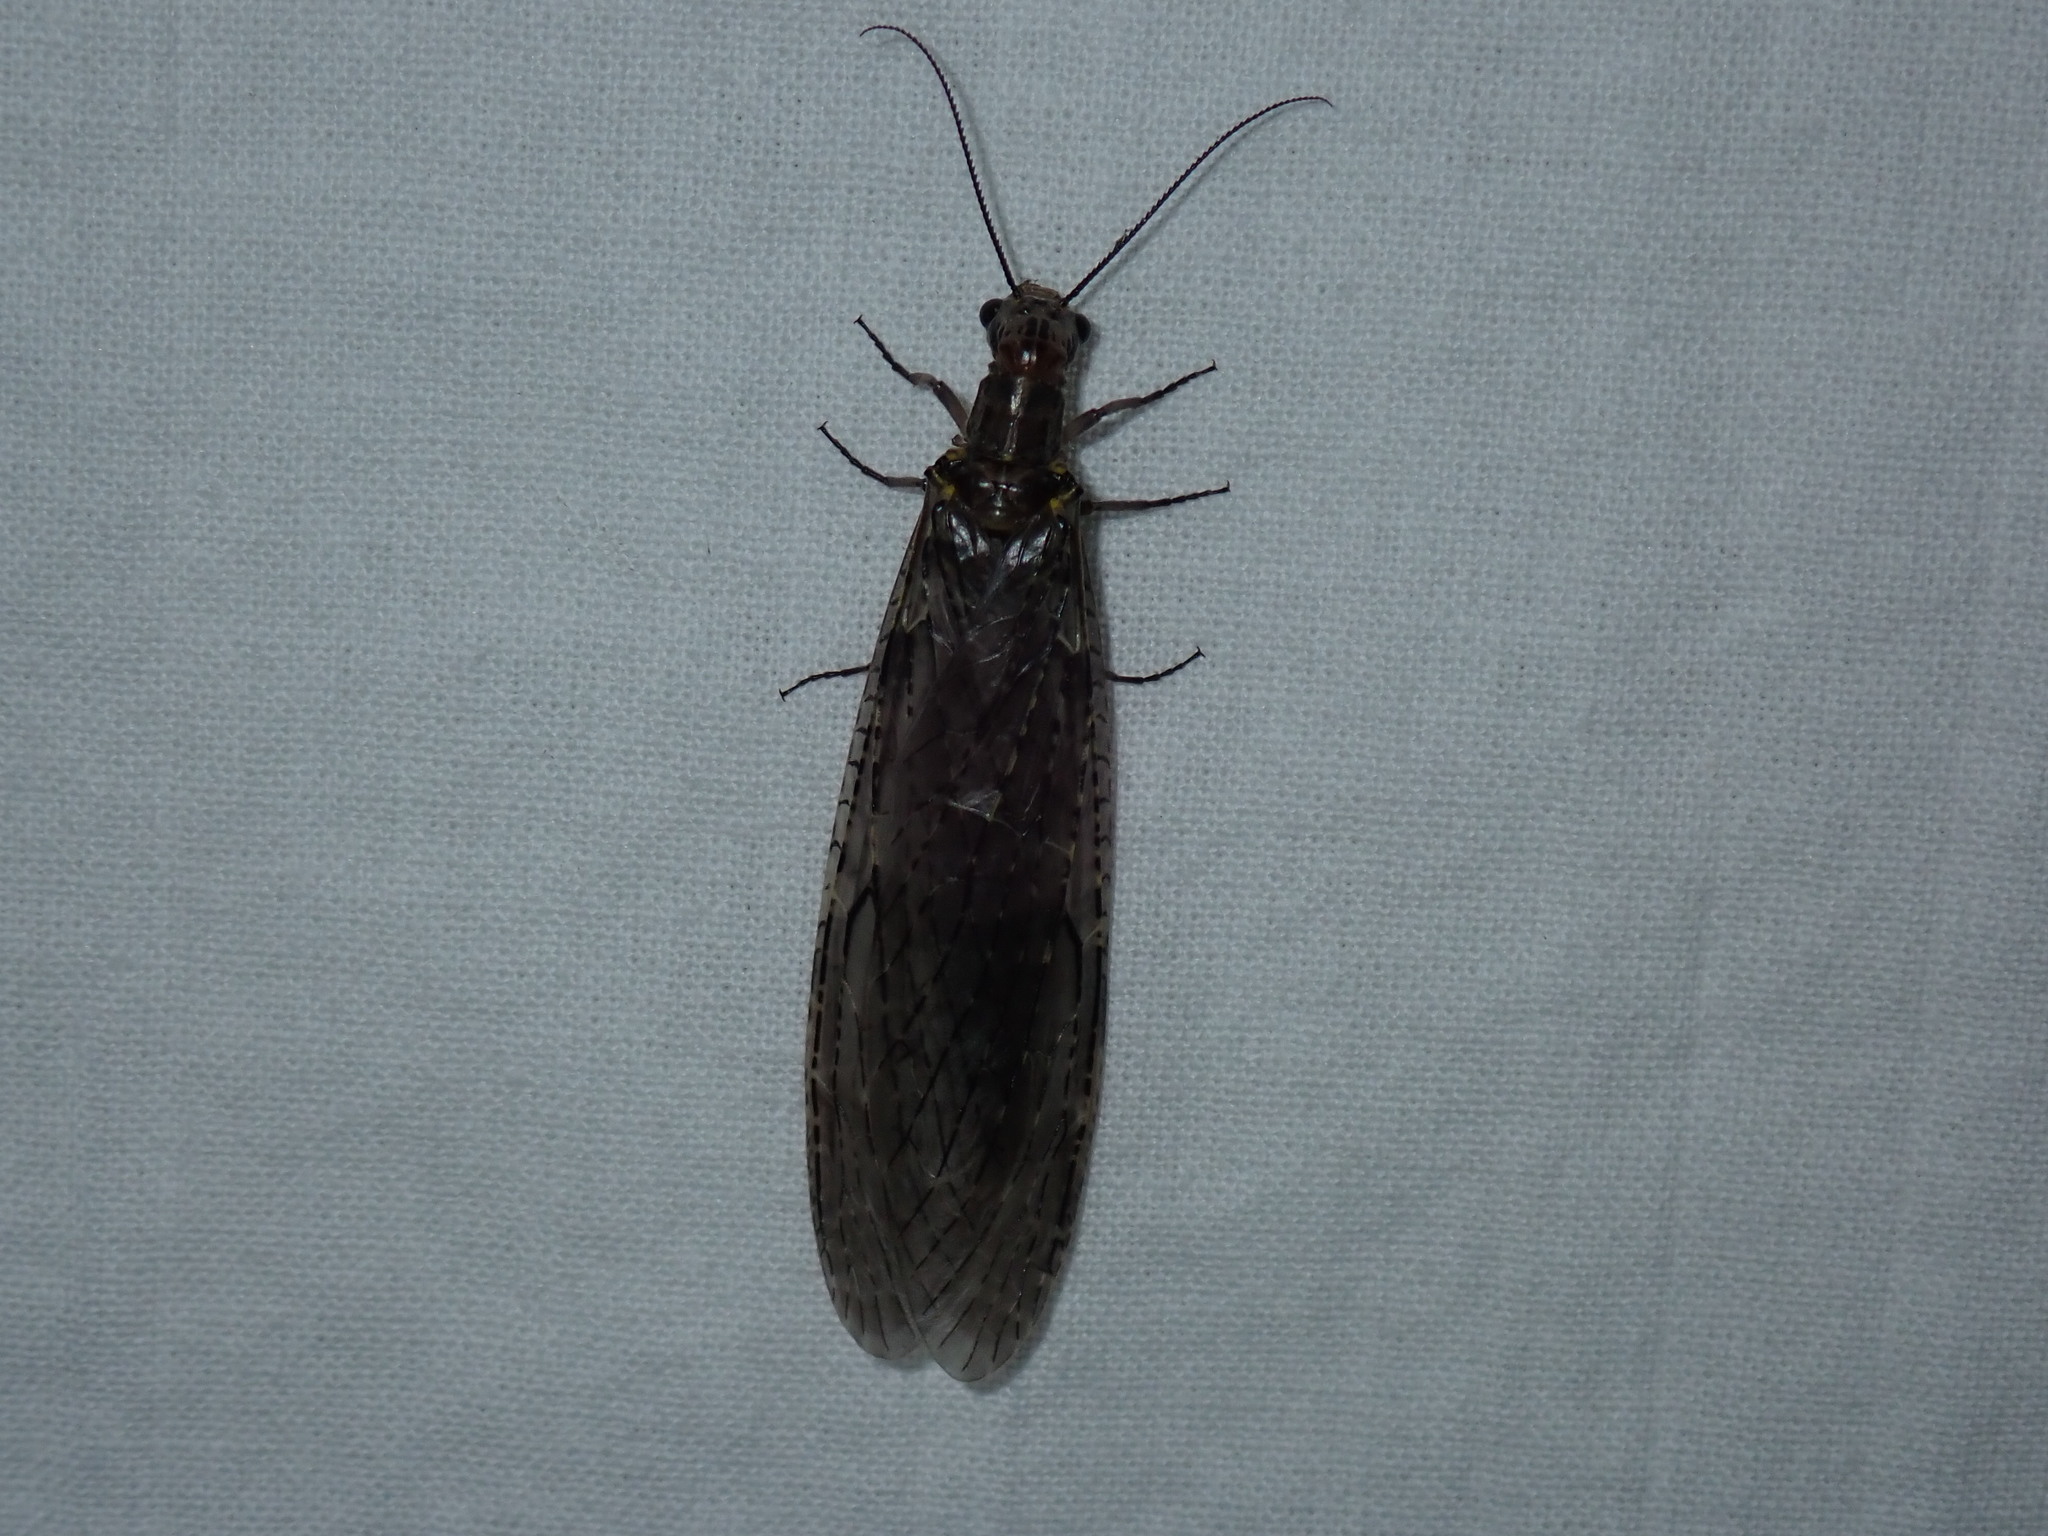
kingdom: Animalia
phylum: Arthropoda
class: Insecta
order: Megaloptera
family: Corydalidae
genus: Chauliodes
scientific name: Chauliodes rastricornis
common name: Spring fishfly
